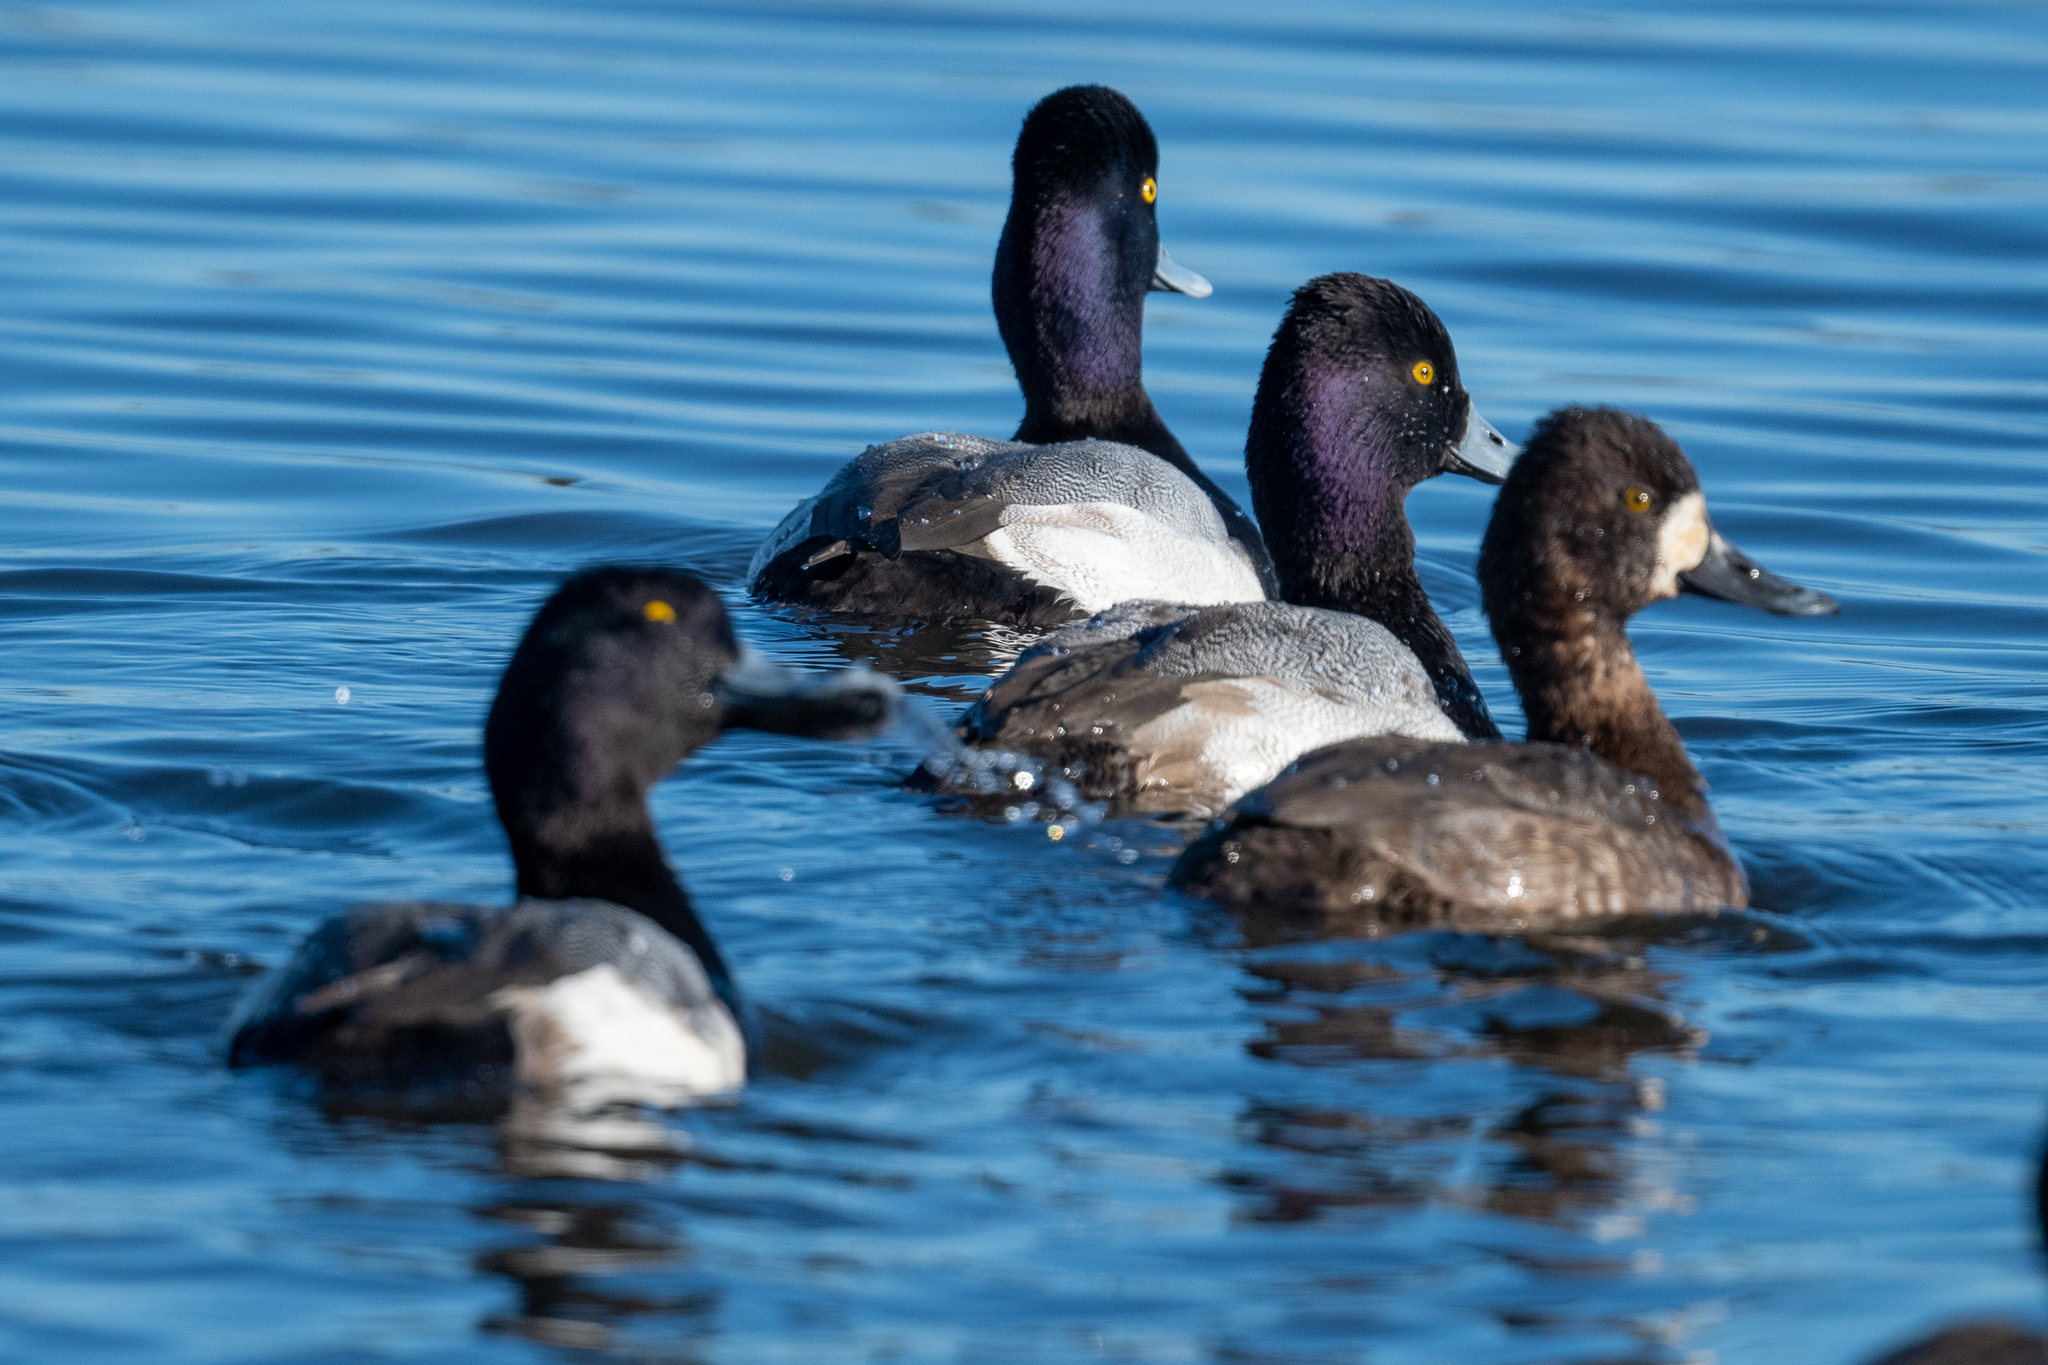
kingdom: Animalia
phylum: Chordata
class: Aves
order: Anseriformes
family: Anatidae
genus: Aythya
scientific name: Aythya affinis
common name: Lesser scaup
